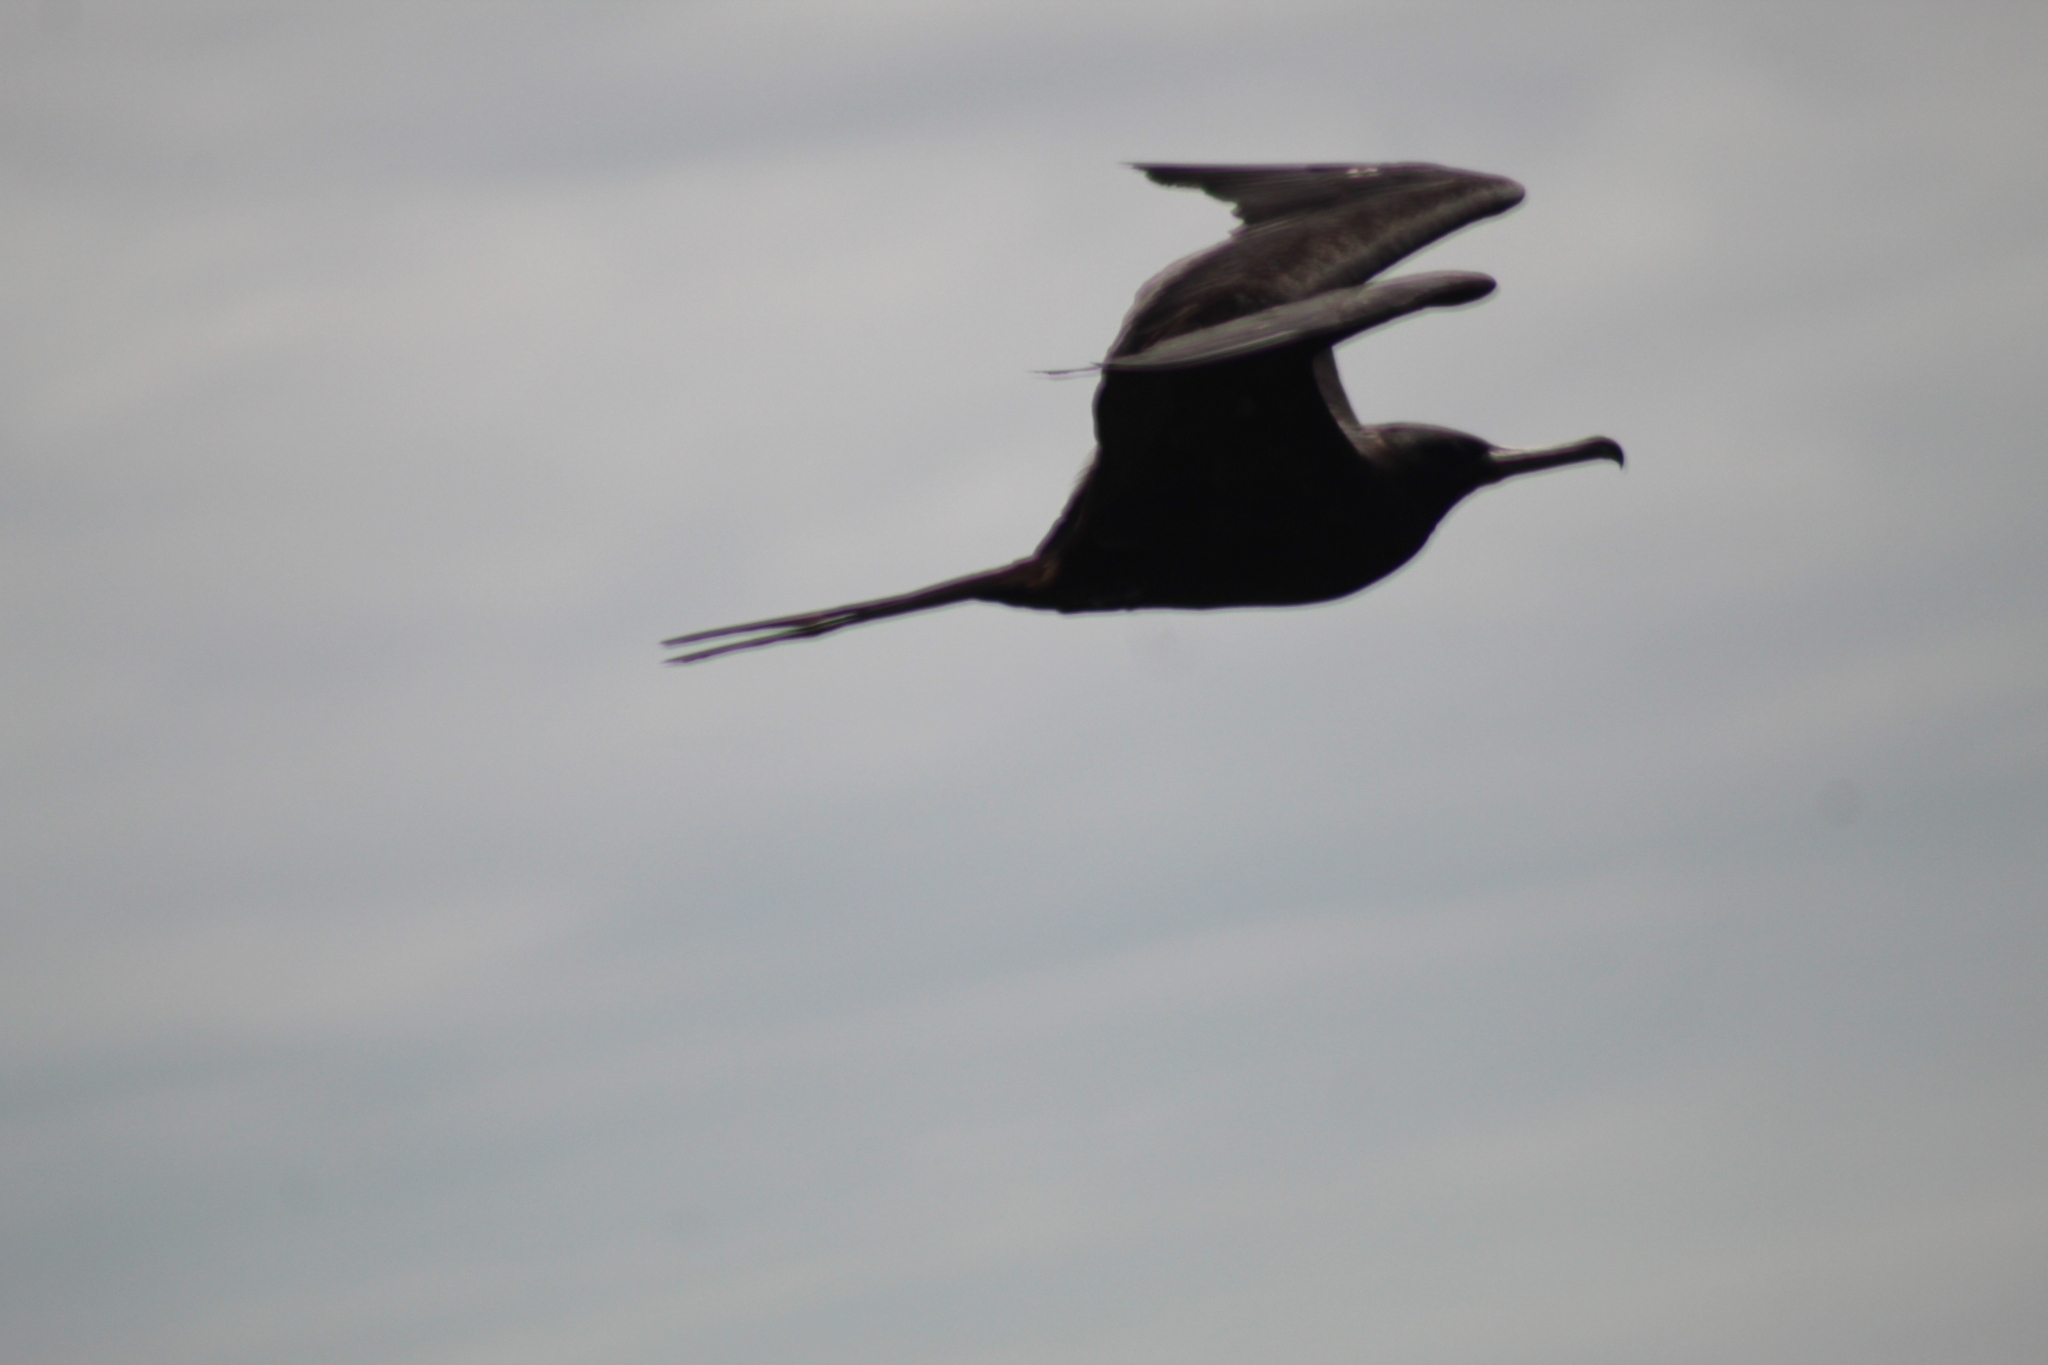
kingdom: Animalia
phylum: Chordata
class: Aves
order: Suliformes
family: Fregatidae
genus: Fregata
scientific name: Fregata magnificens
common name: Magnificent frigatebird
